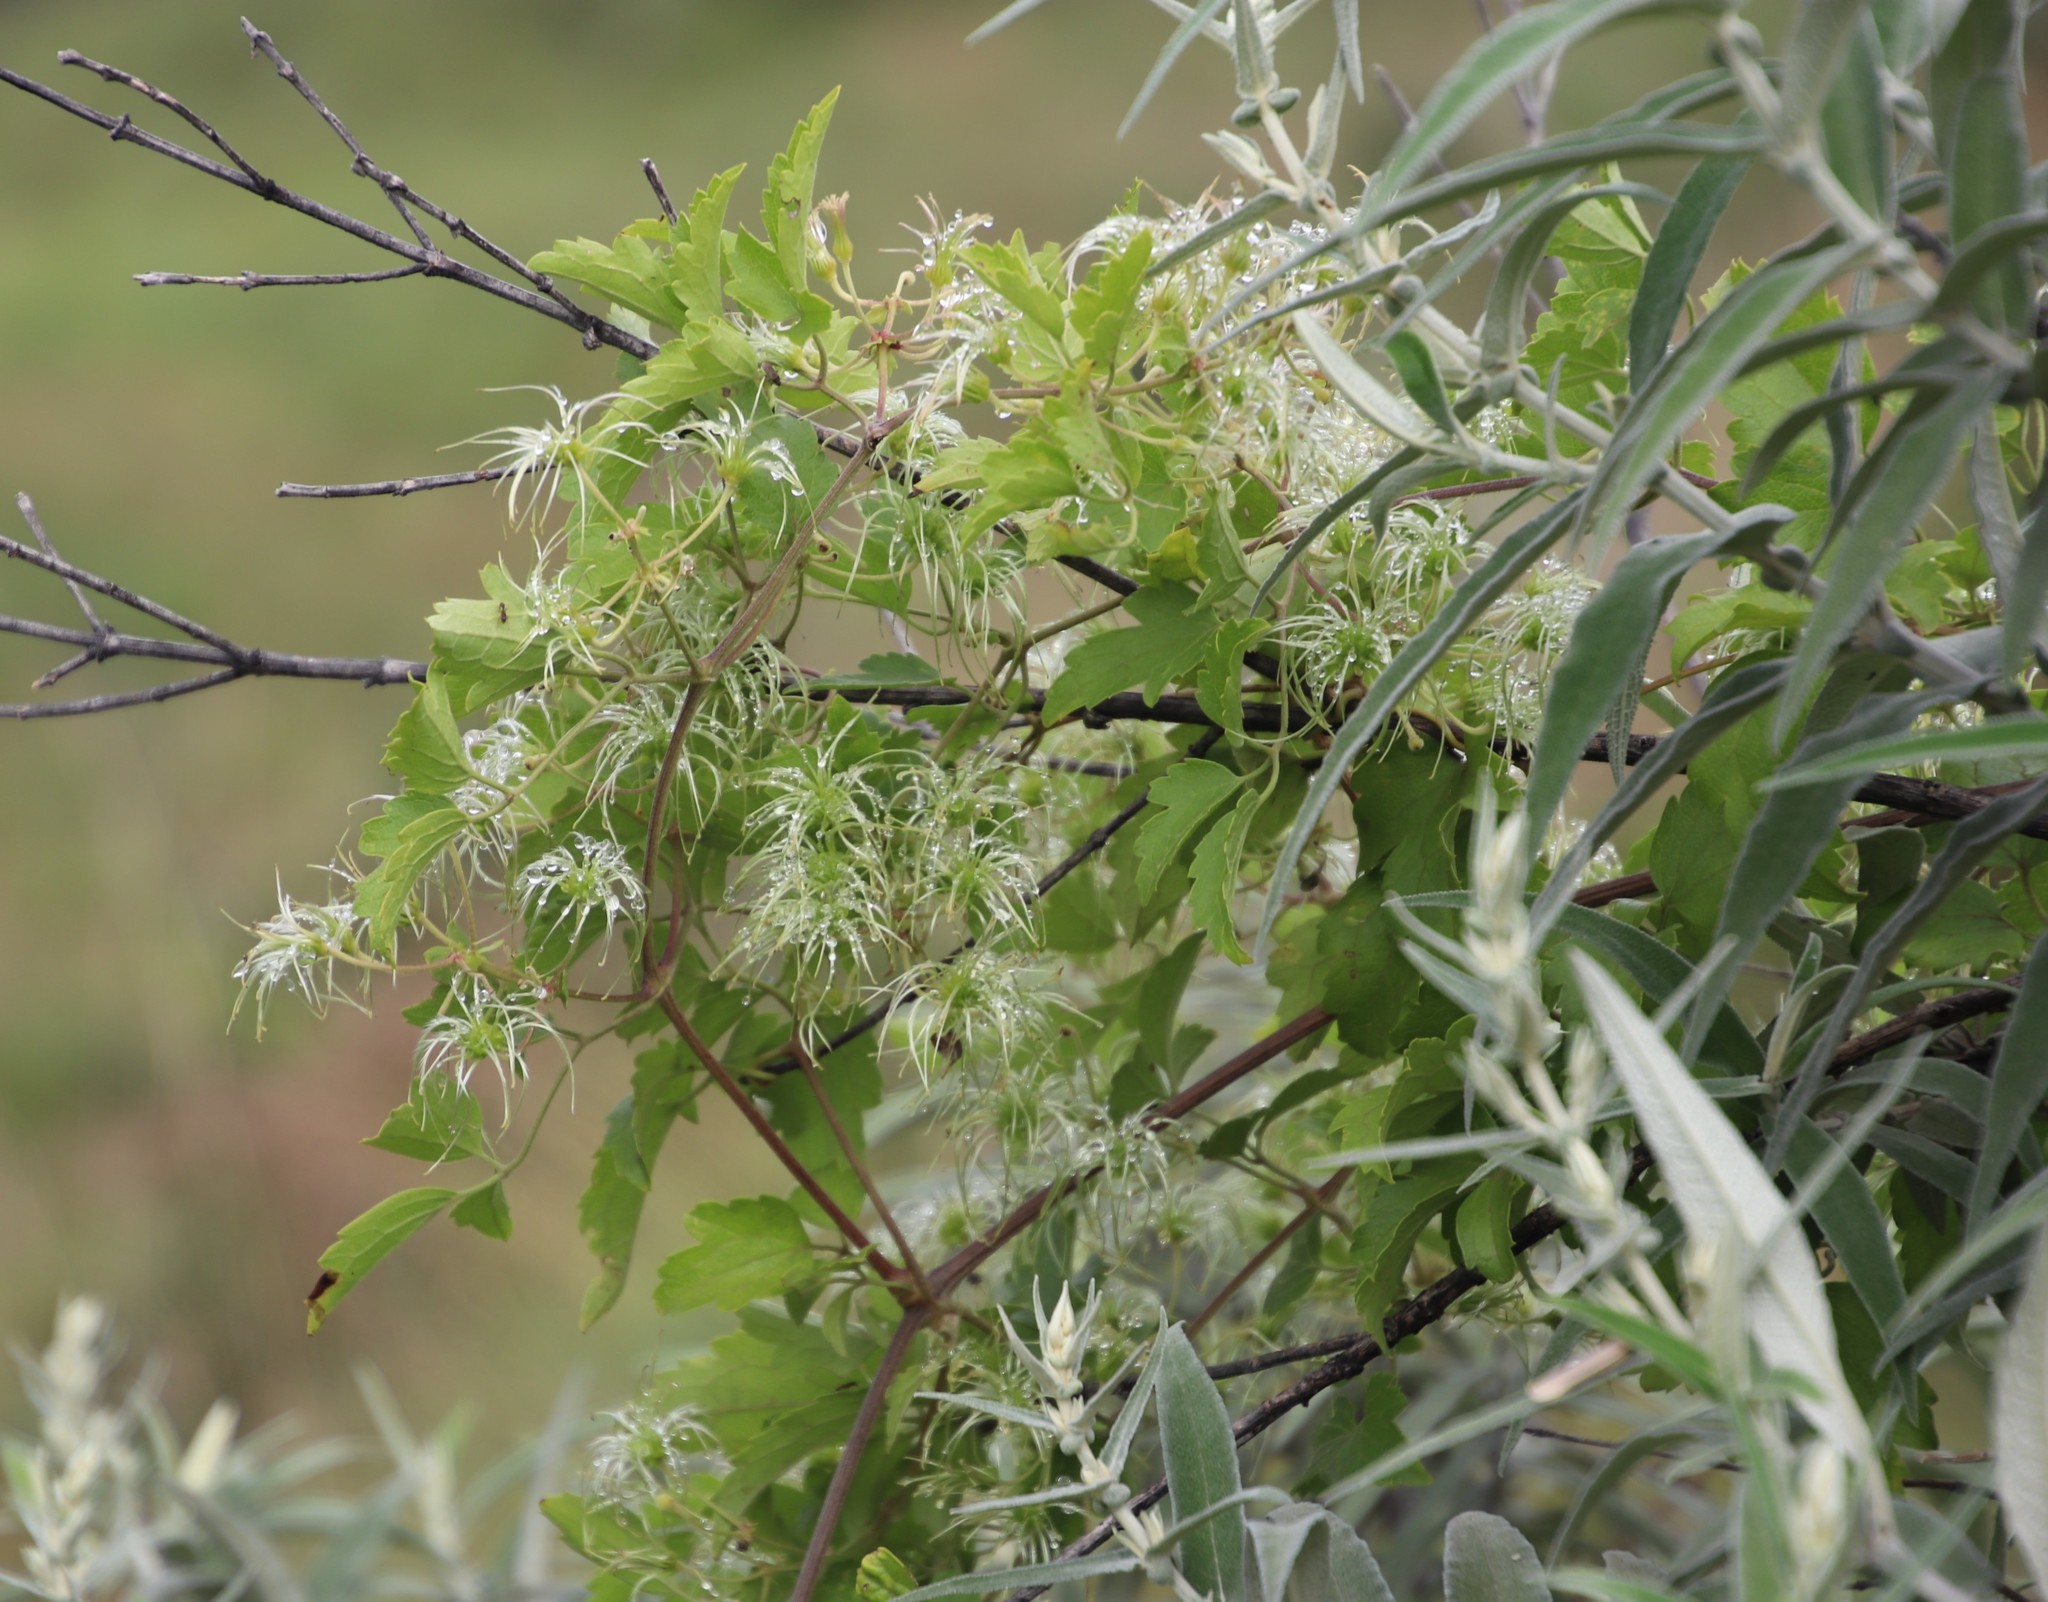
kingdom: Plantae
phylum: Tracheophyta
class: Magnoliopsida
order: Ranunculales
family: Ranunculaceae
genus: Clematis
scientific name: Clematis brachiata
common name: Traveler's-joy
